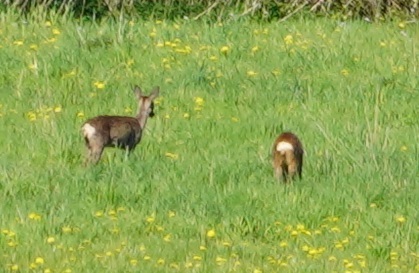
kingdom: Animalia
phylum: Chordata
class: Mammalia
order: Artiodactyla
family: Cervidae
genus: Capreolus
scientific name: Capreolus capreolus
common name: Western roe deer
